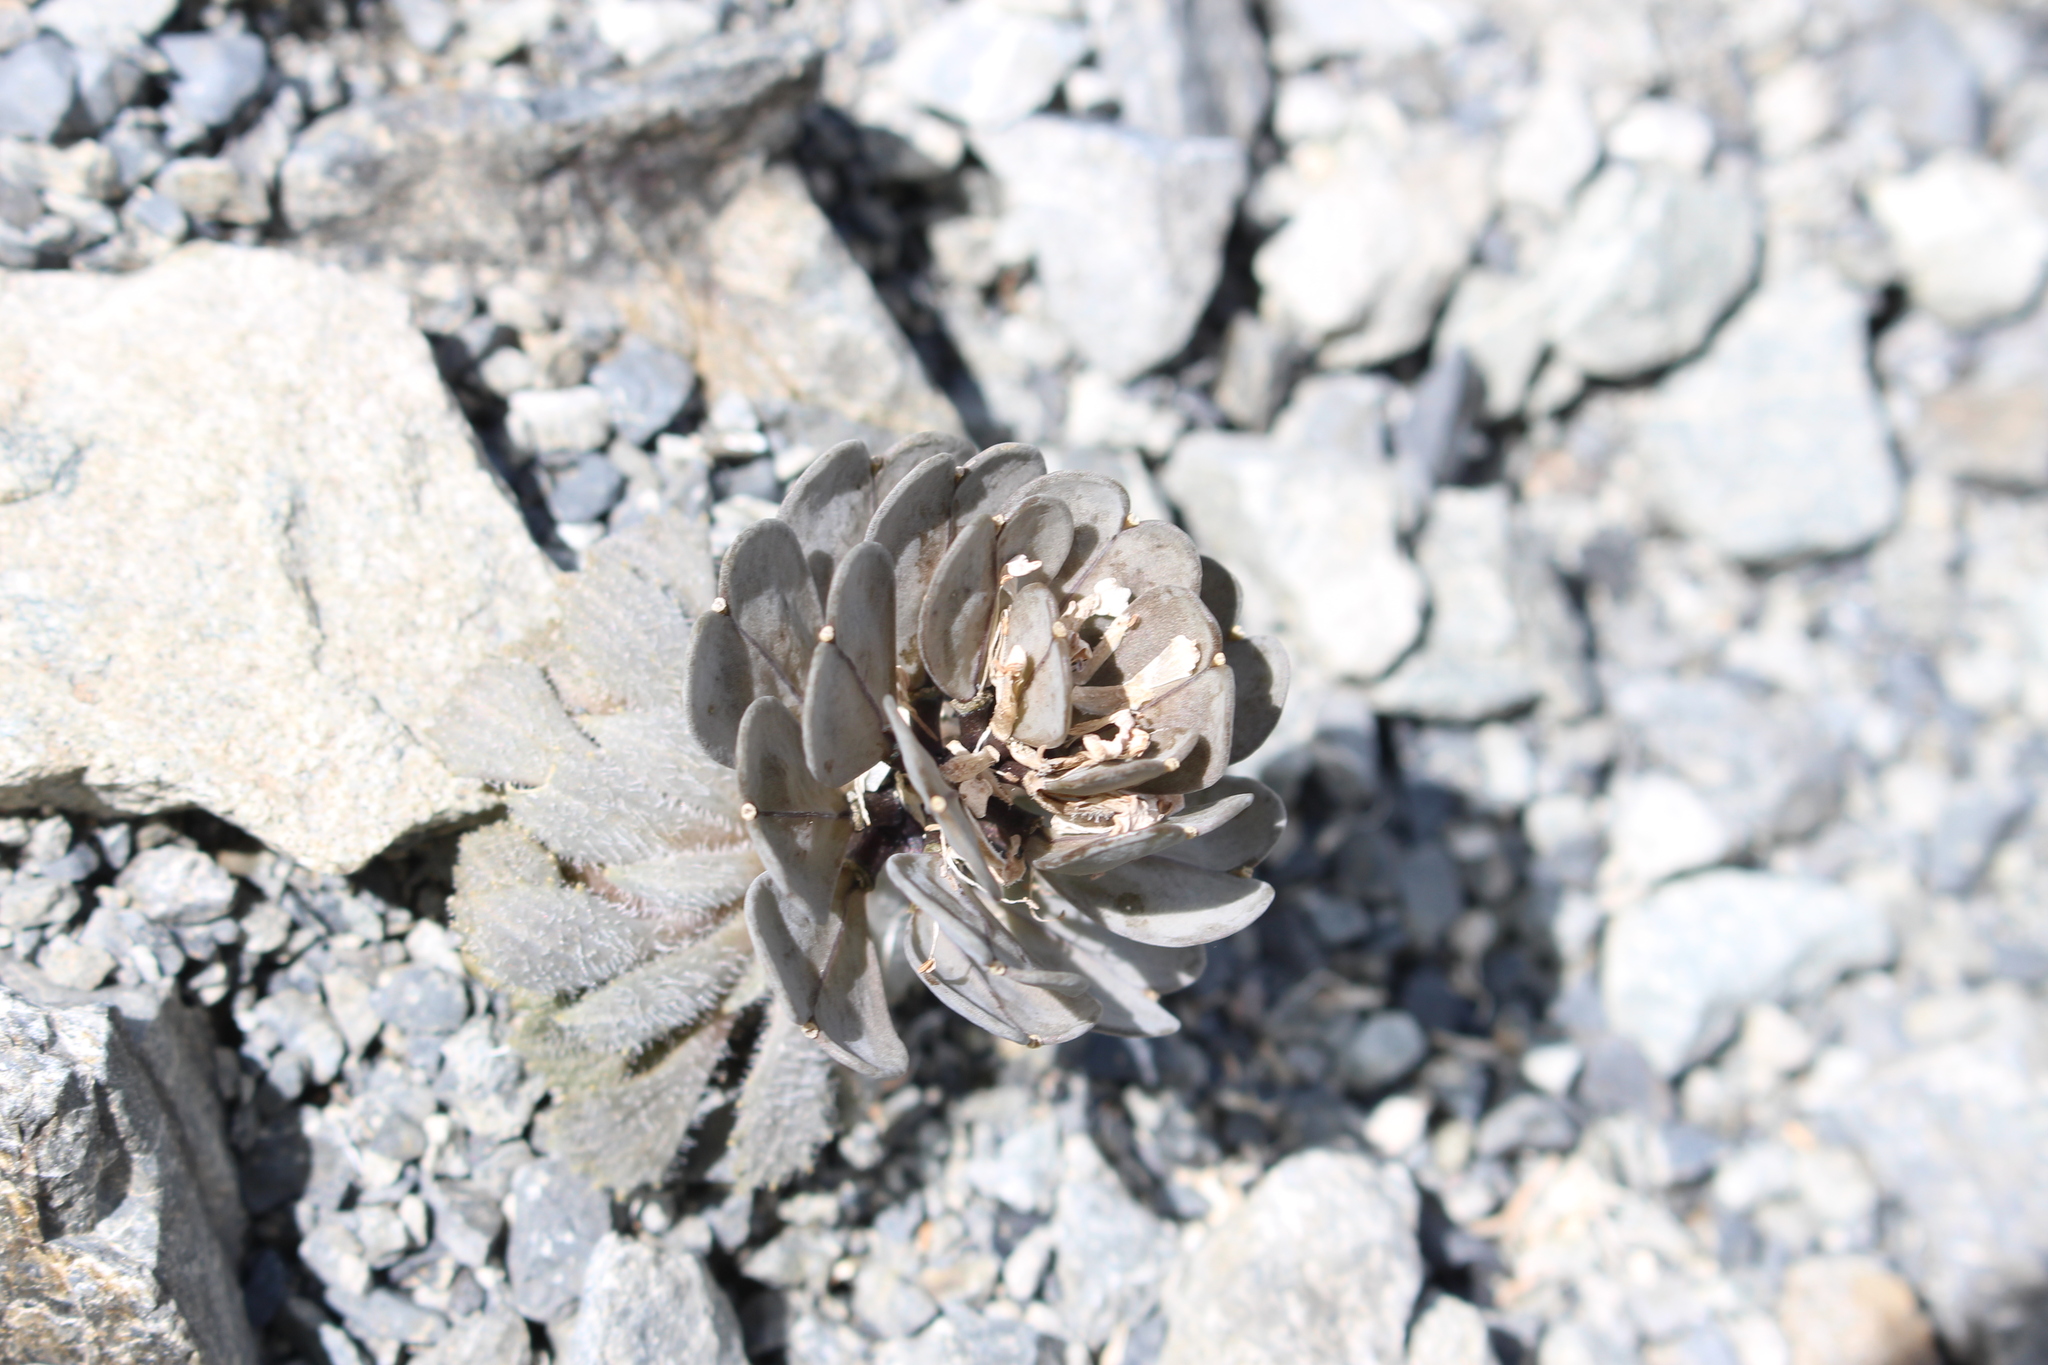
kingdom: Plantae
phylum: Tracheophyta
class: Magnoliopsida
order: Brassicales
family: Brassicaceae
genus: Notothlaspi
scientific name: Notothlaspi rosulatum
